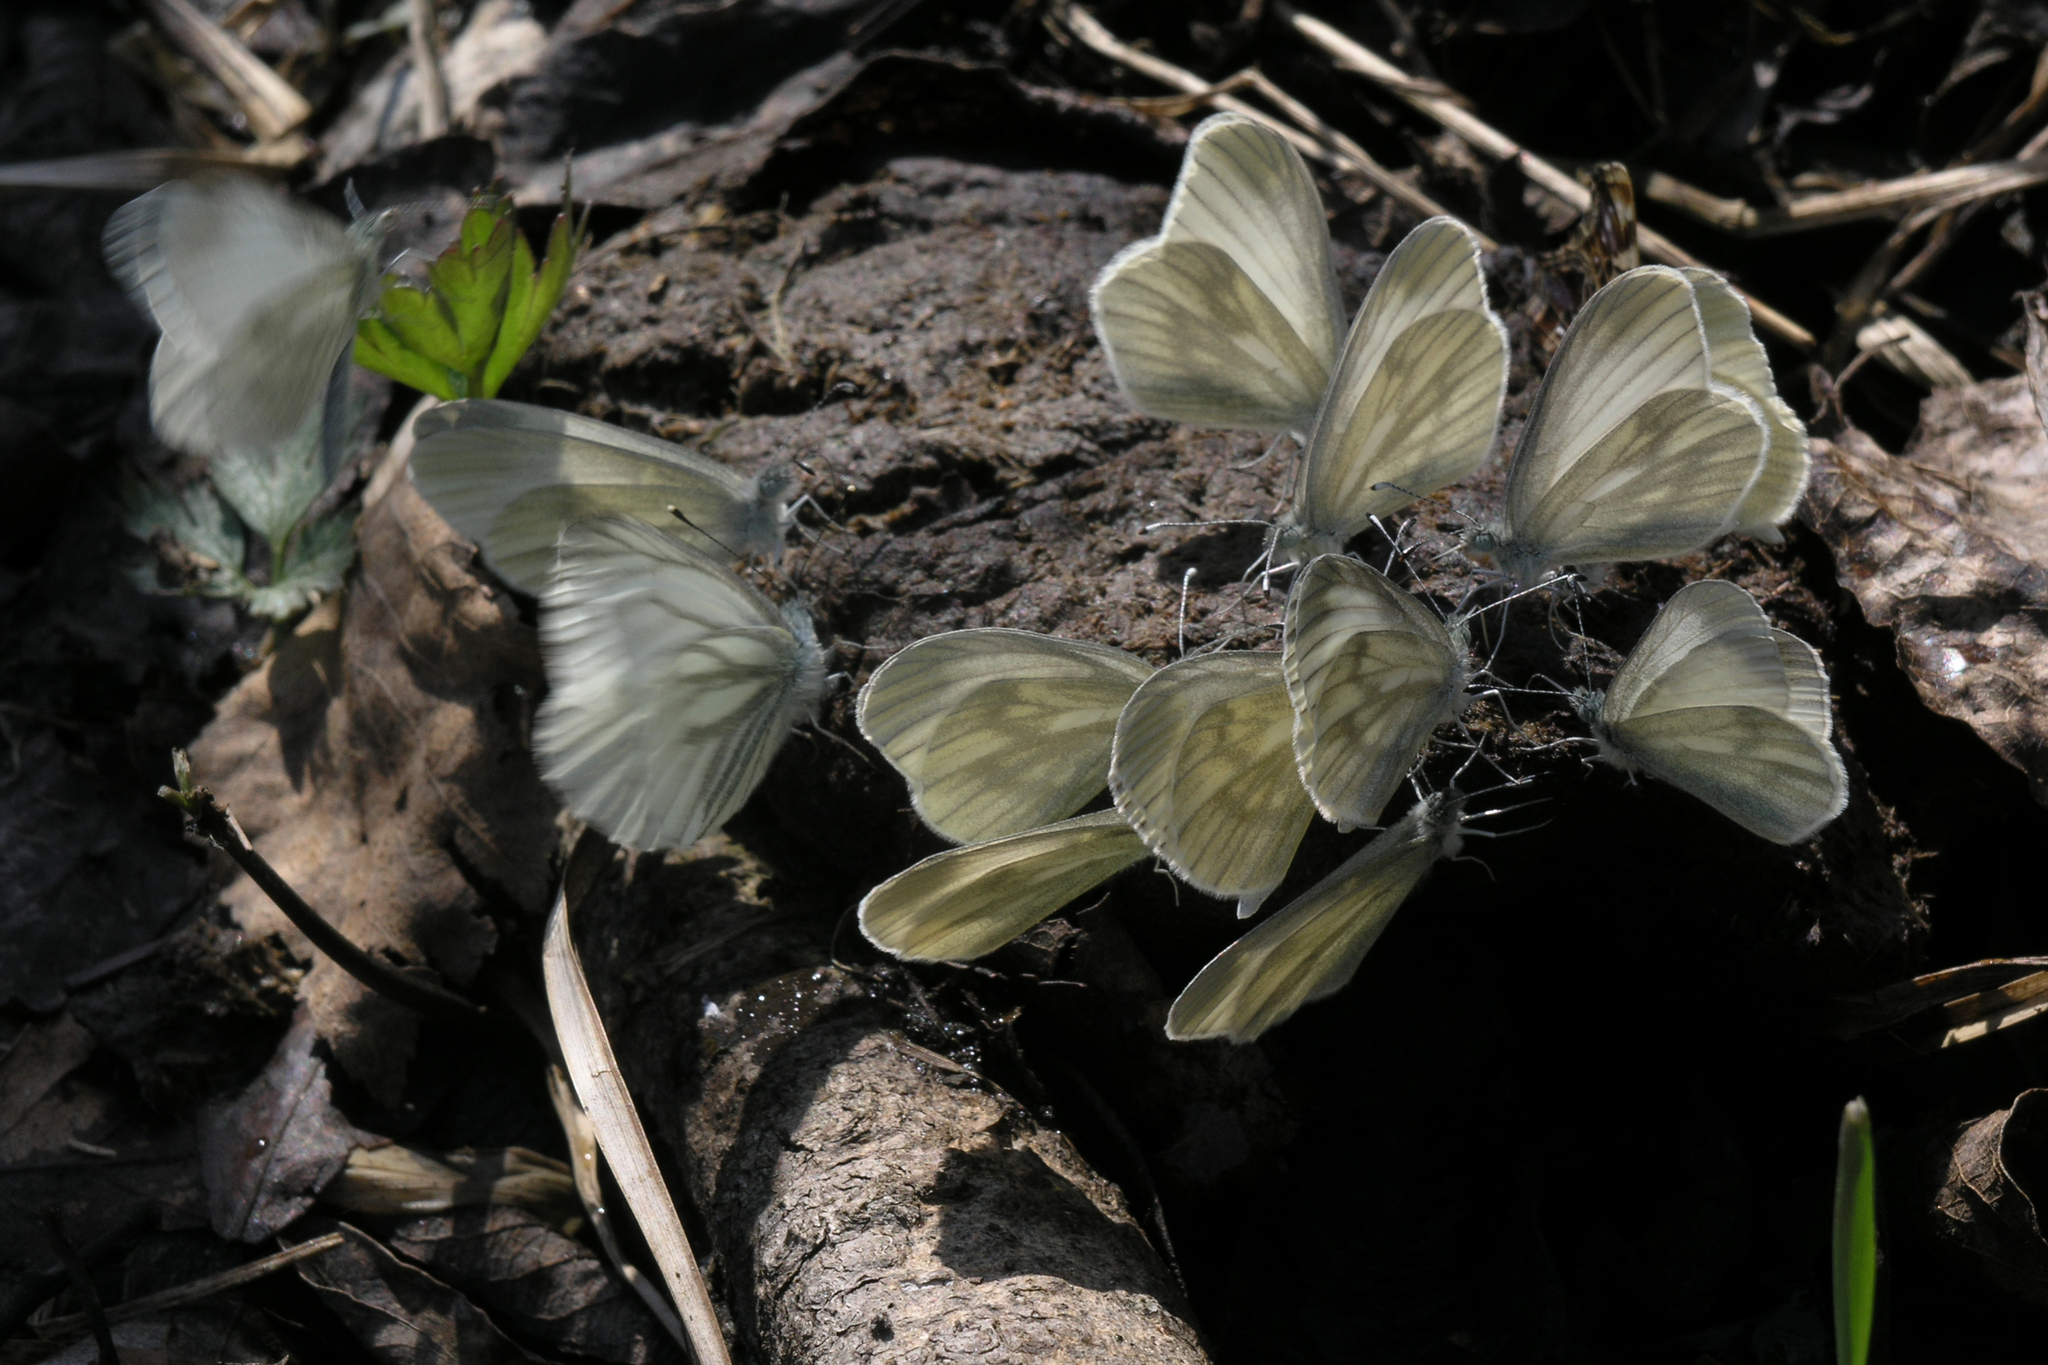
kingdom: Animalia
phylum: Arthropoda
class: Insecta
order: Lepidoptera
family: Pieridae
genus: Leptidea
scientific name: Leptidea morsei
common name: Fenton's wood white
